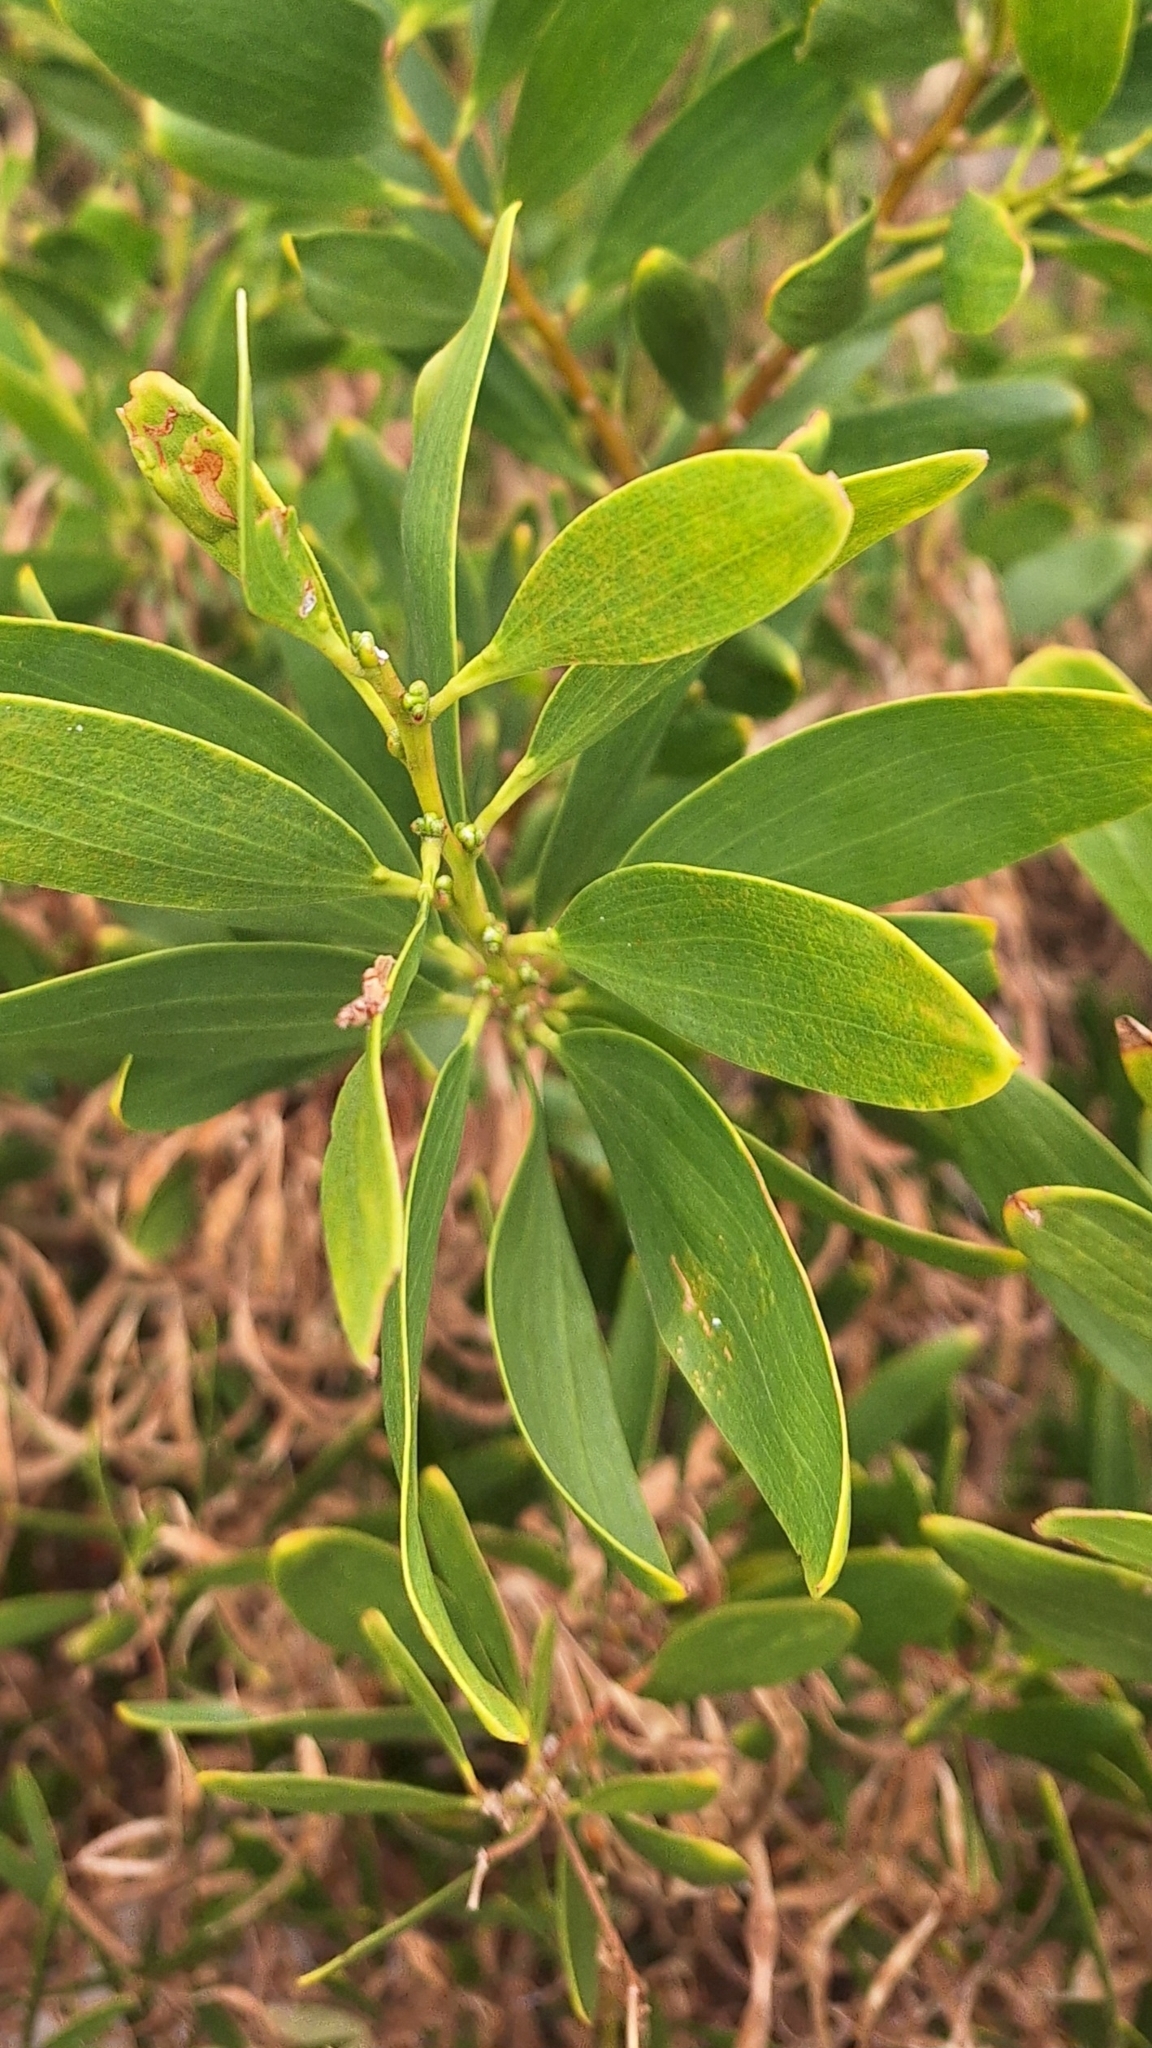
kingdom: Plantae
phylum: Tracheophyta
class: Magnoliopsida
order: Fabales
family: Fabaceae
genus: Acacia
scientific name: Acacia longifolia
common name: Sydney golden wattle
